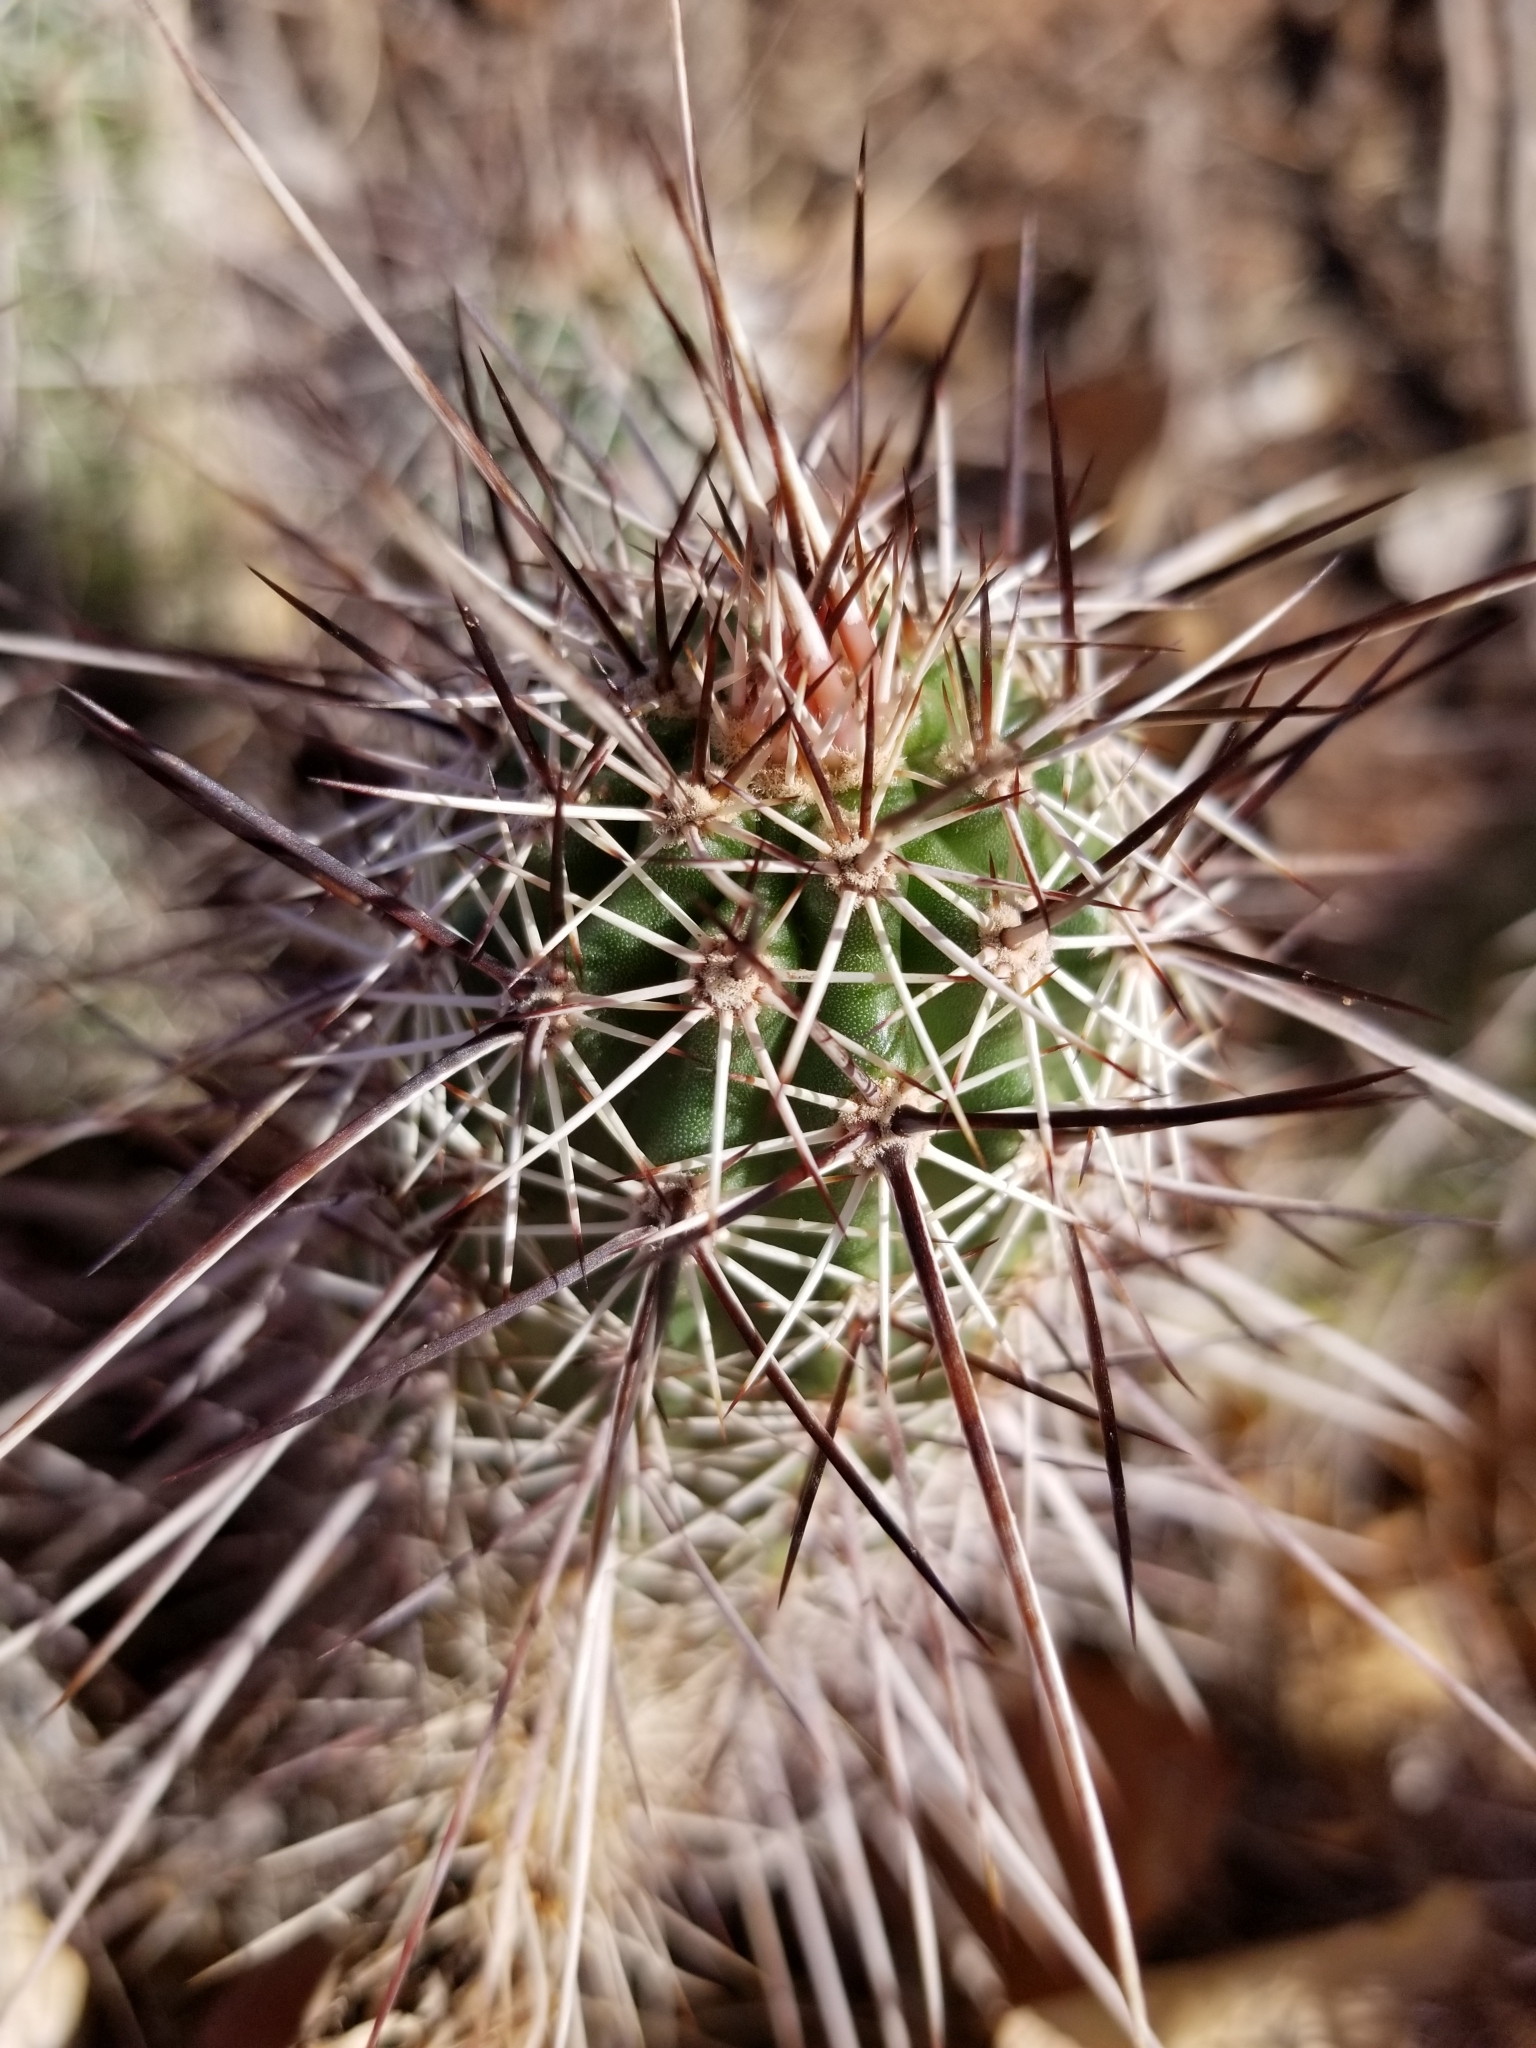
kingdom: Plantae
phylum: Tracheophyta
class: Magnoliopsida
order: Caryophyllales
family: Cactaceae
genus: Echinocereus
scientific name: Echinocereus engelmannii
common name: Engelmann's hedgehog cactus
